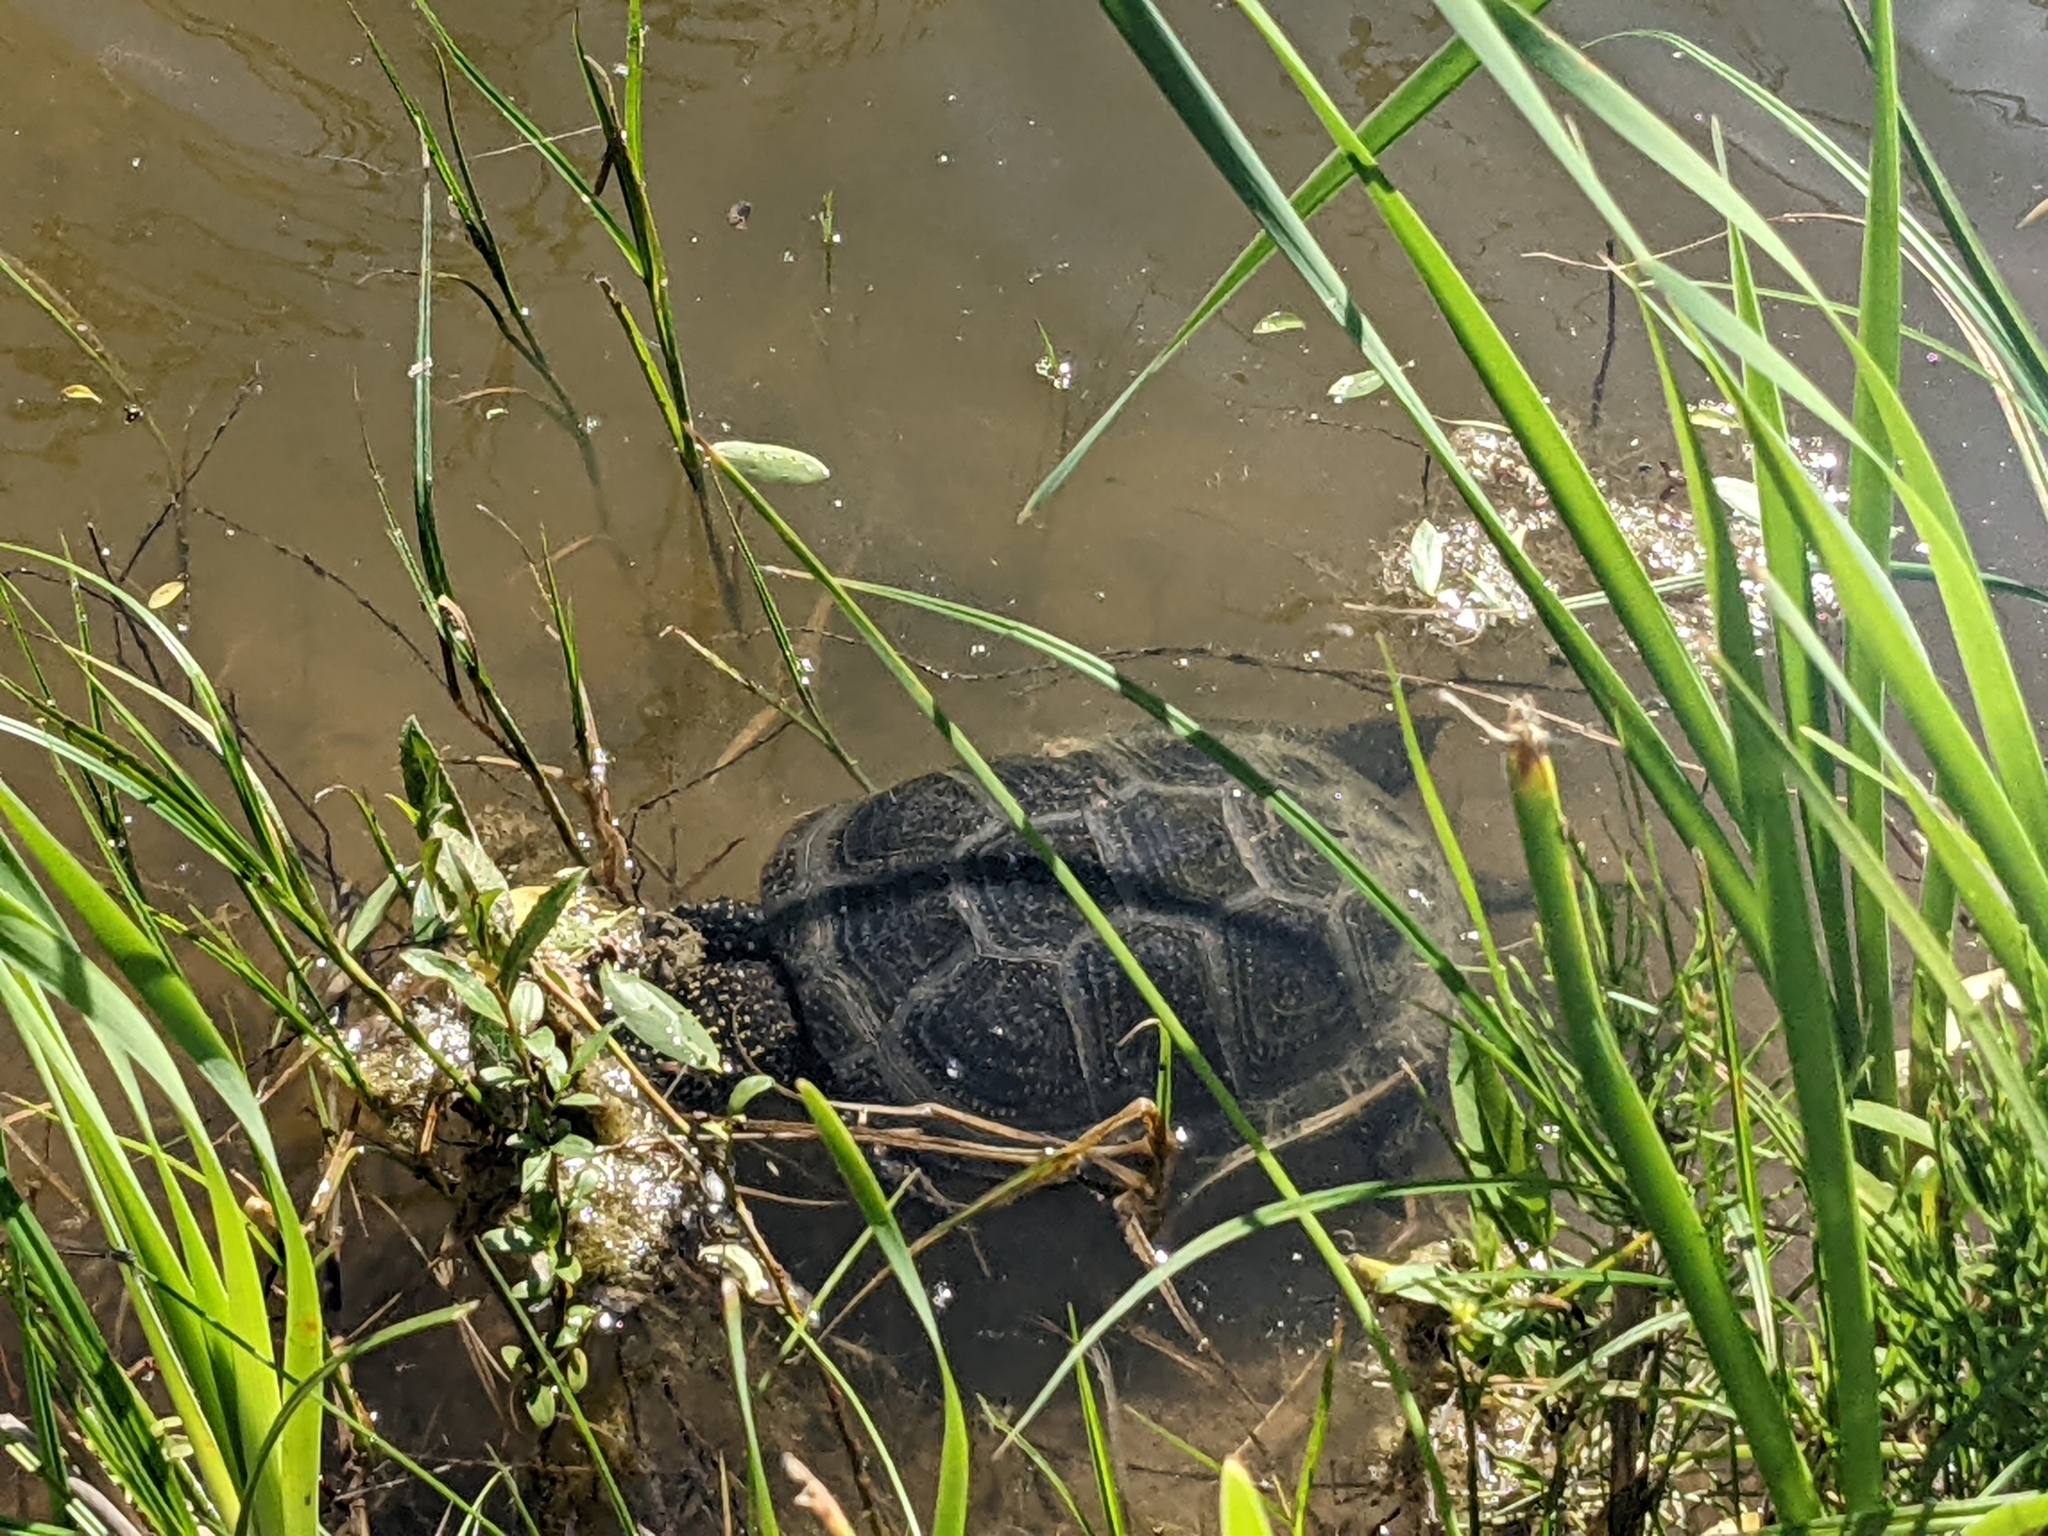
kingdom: Animalia
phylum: Chordata
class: Testudines
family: Emydidae
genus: Emys
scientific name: Emys orbicularis
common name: European pond turtle
